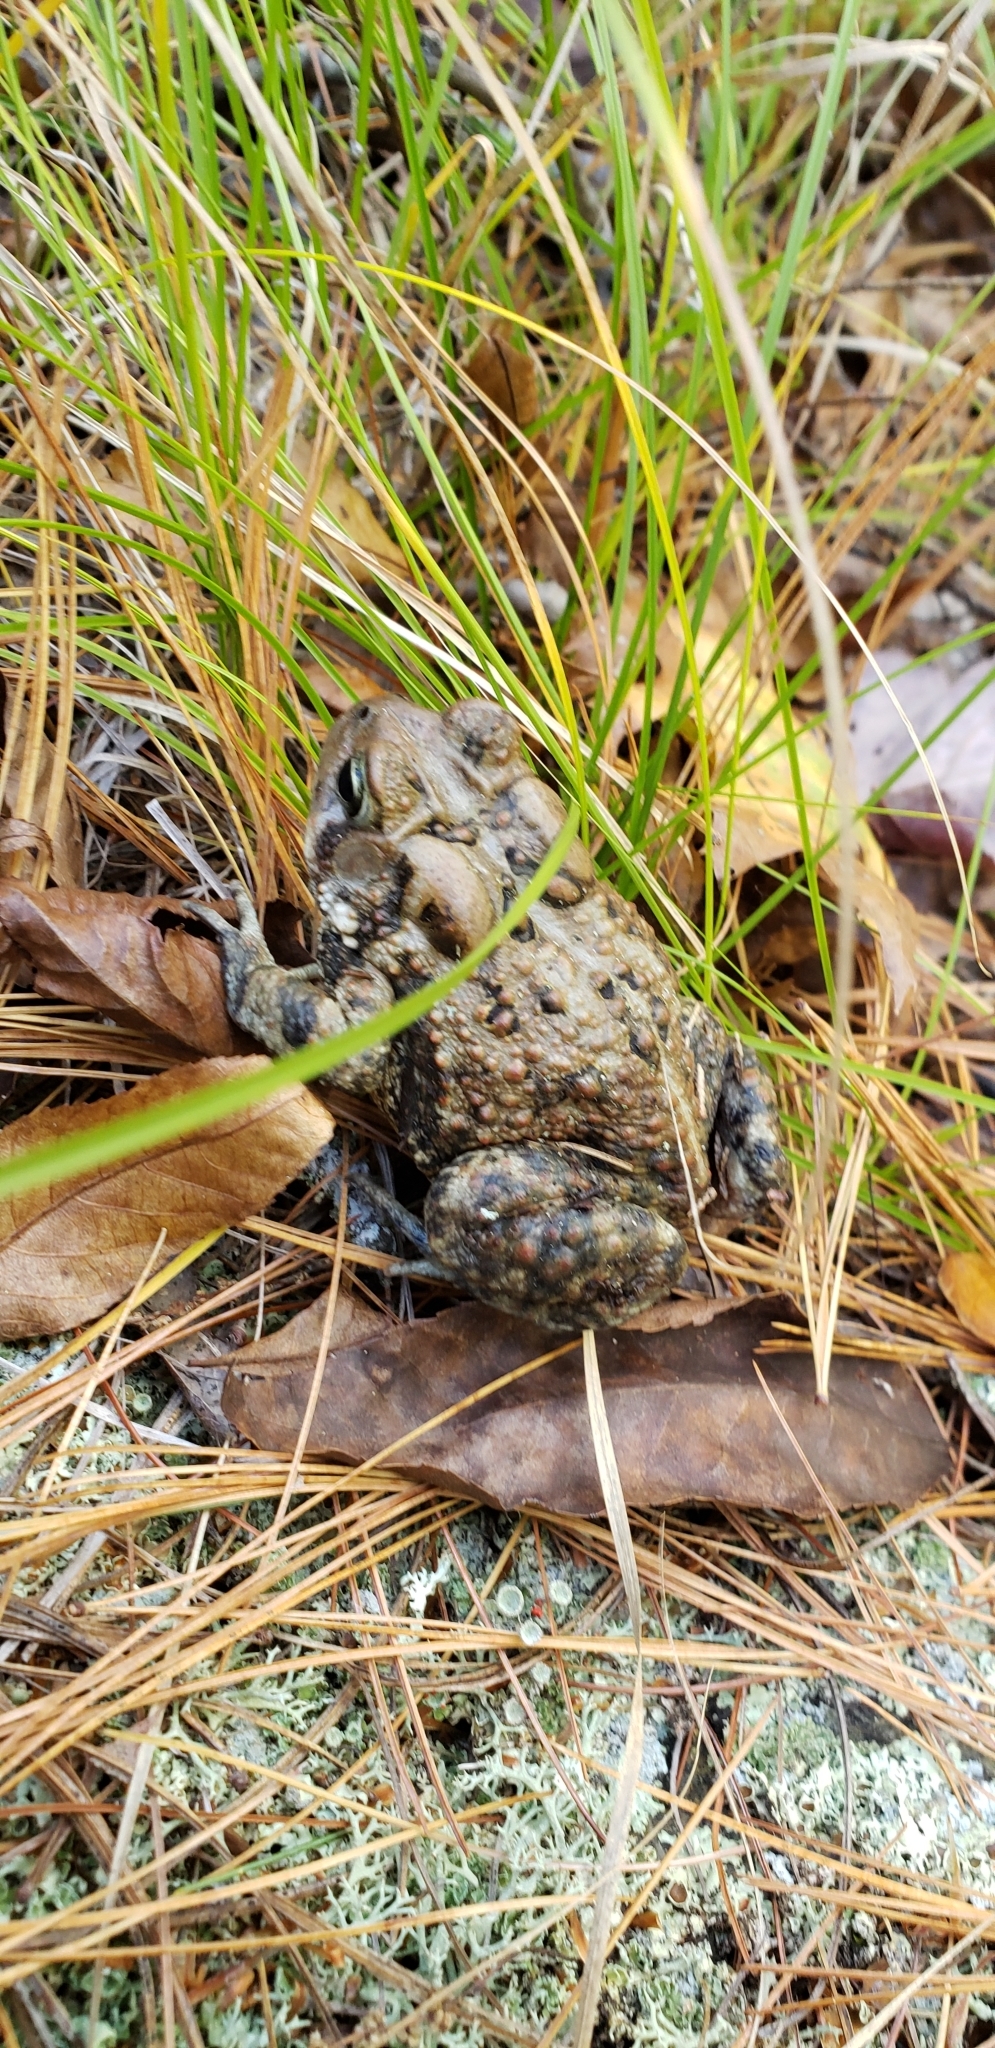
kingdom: Animalia
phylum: Chordata
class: Amphibia
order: Anura
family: Bufonidae
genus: Anaxyrus
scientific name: Anaxyrus americanus
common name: American toad
